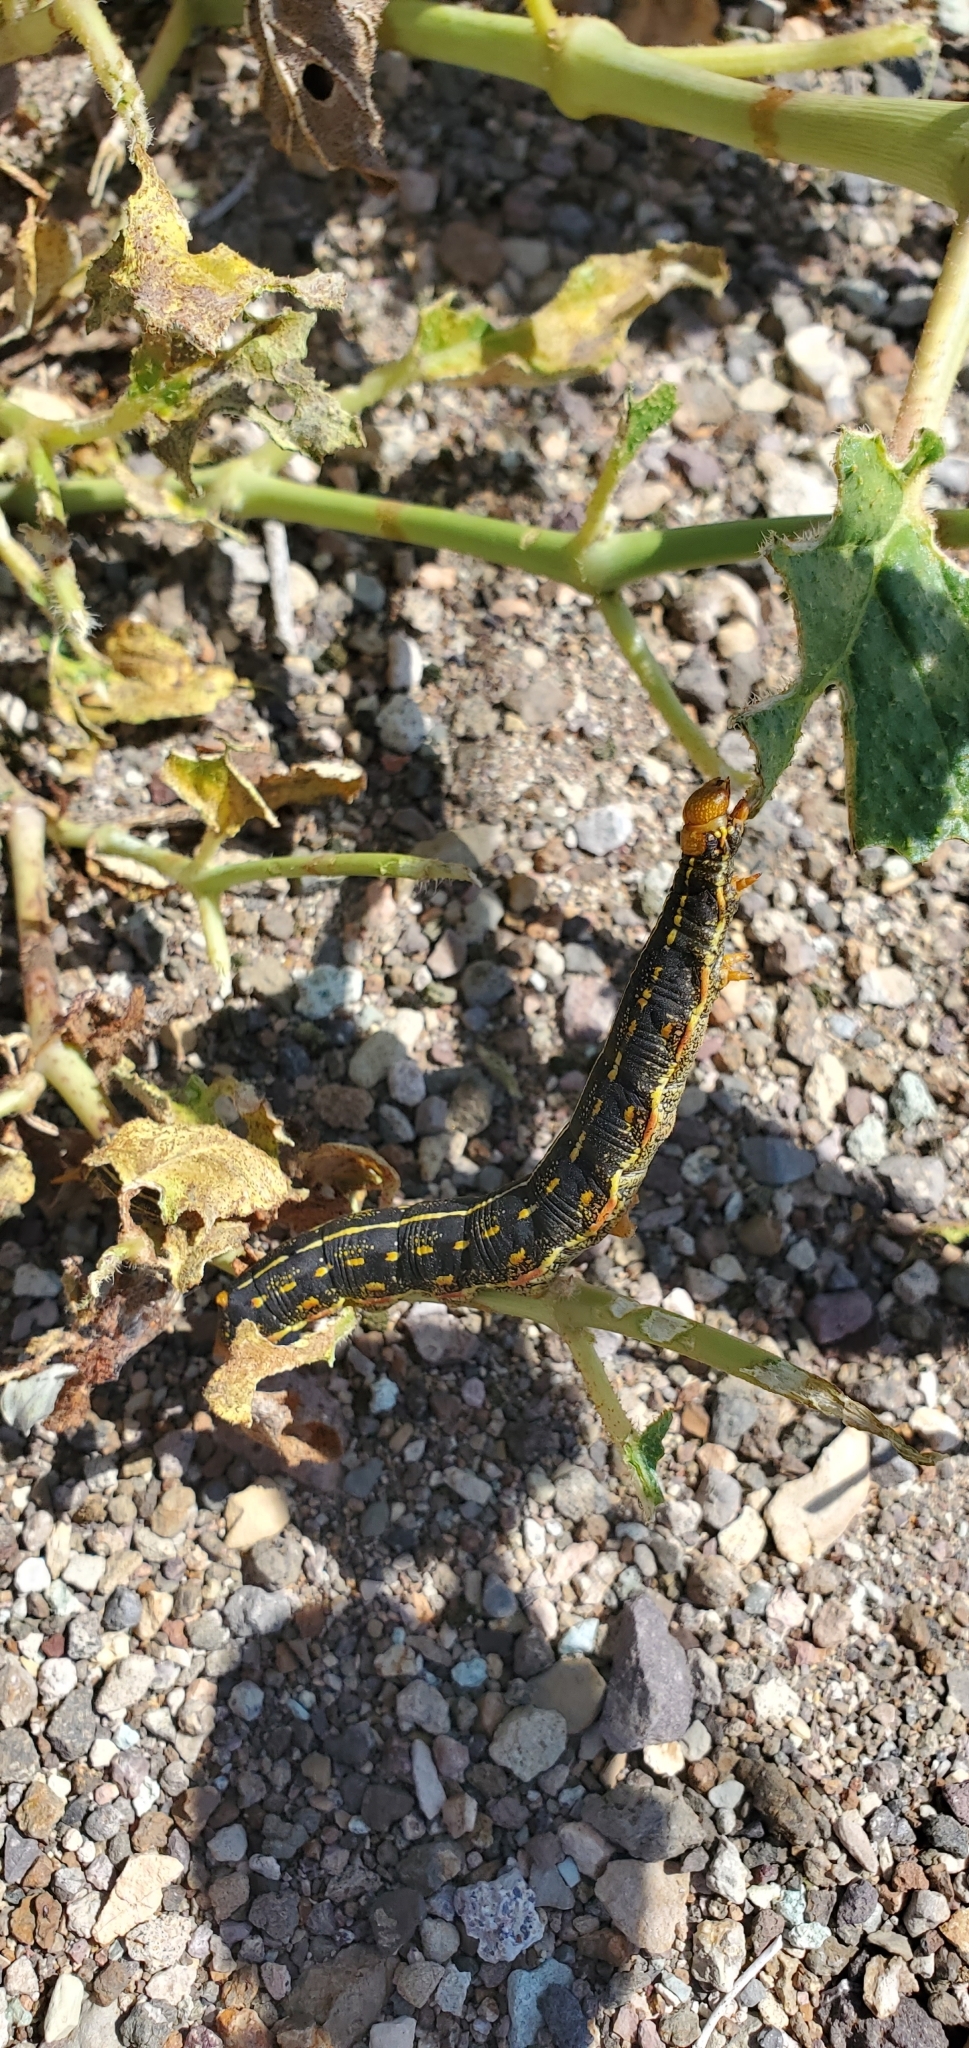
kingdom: Animalia
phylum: Arthropoda
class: Insecta
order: Lepidoptera
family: Sphingidae
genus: Hyles
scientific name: Hyles lineata
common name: White-lined sphinx
